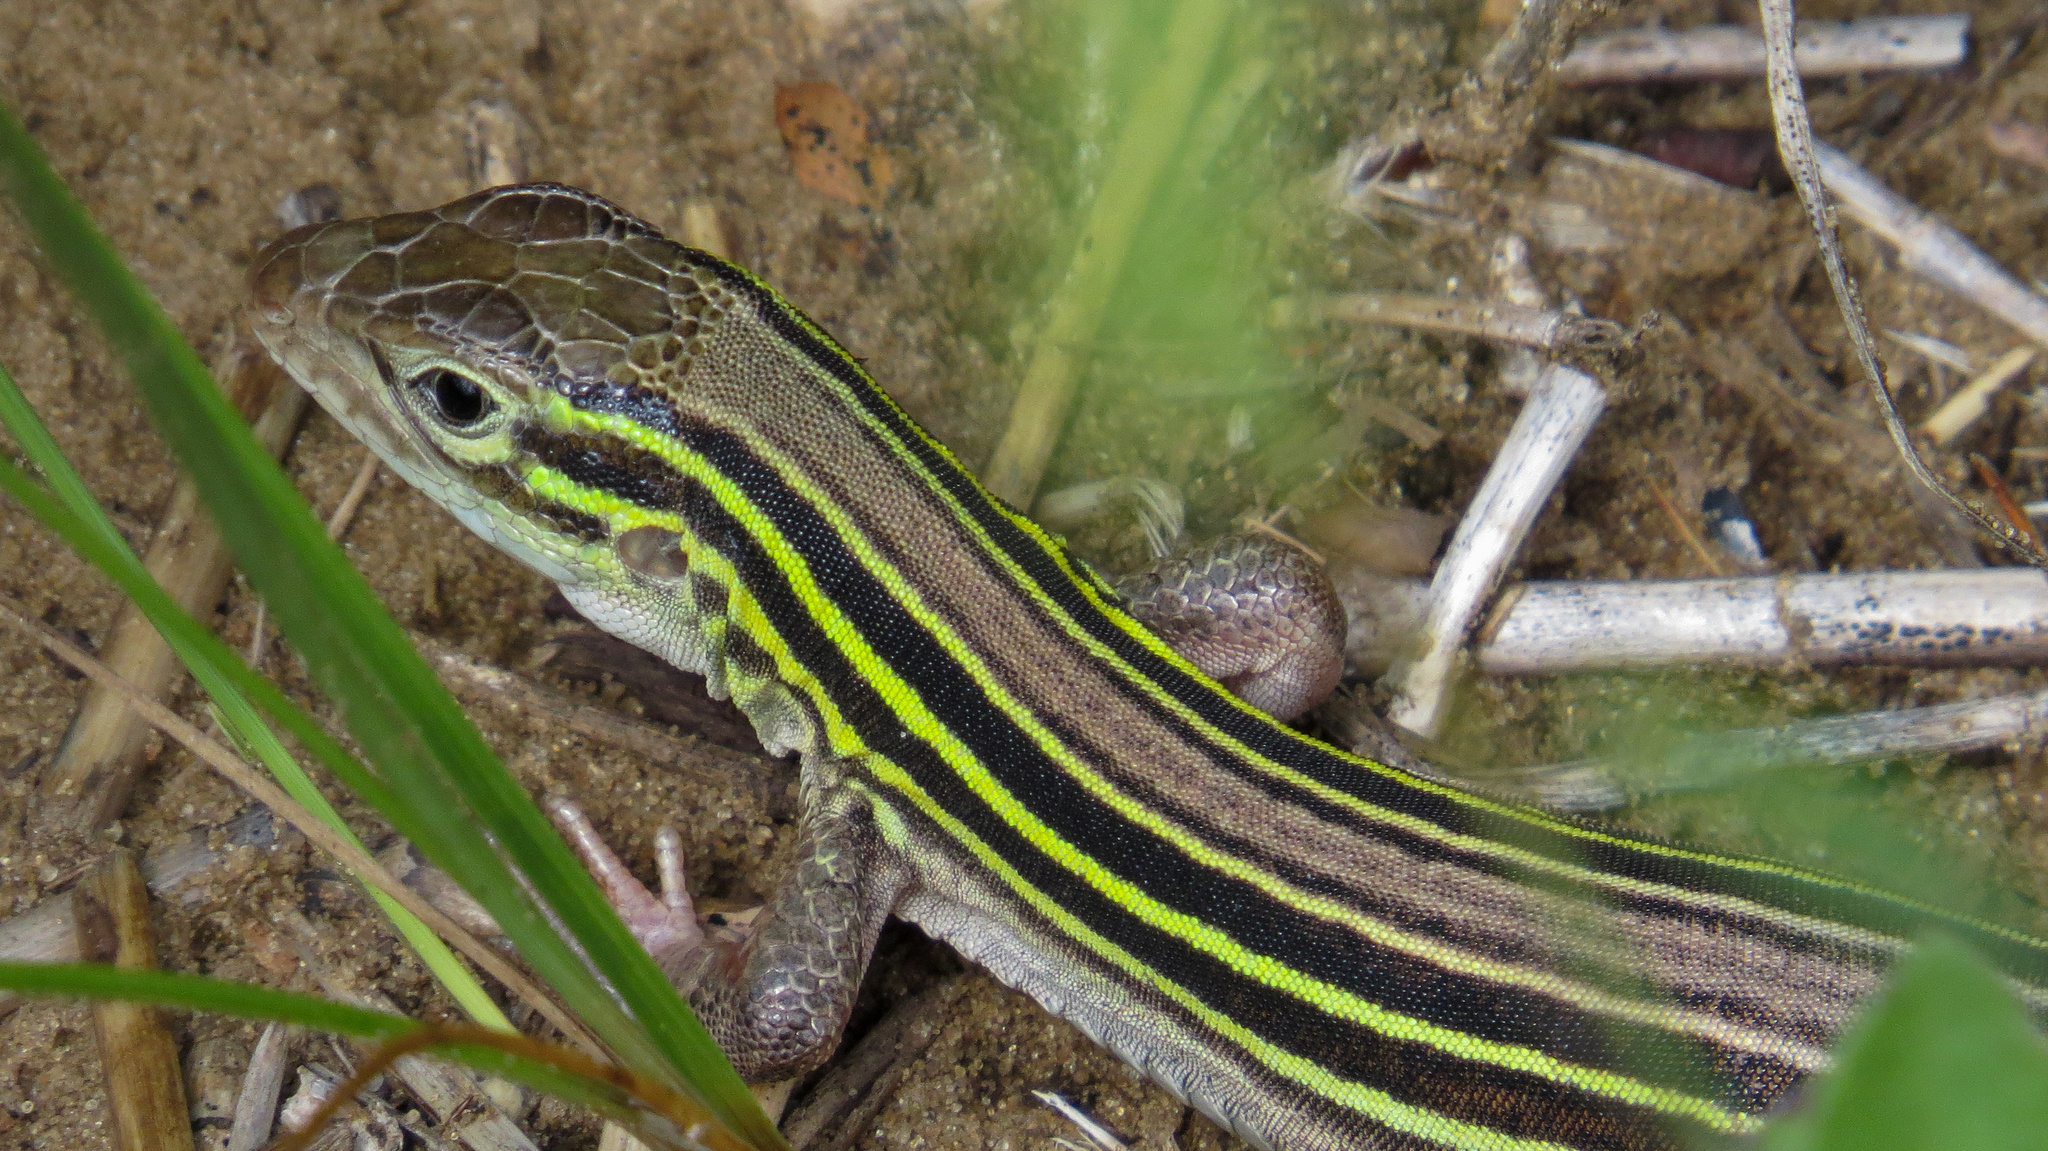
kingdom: Animalia
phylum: Chordata
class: Squamata
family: Teiidae
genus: Aspidoscelis
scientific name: Aspidoscelis sexlineatus
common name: Six-lined racerunner
